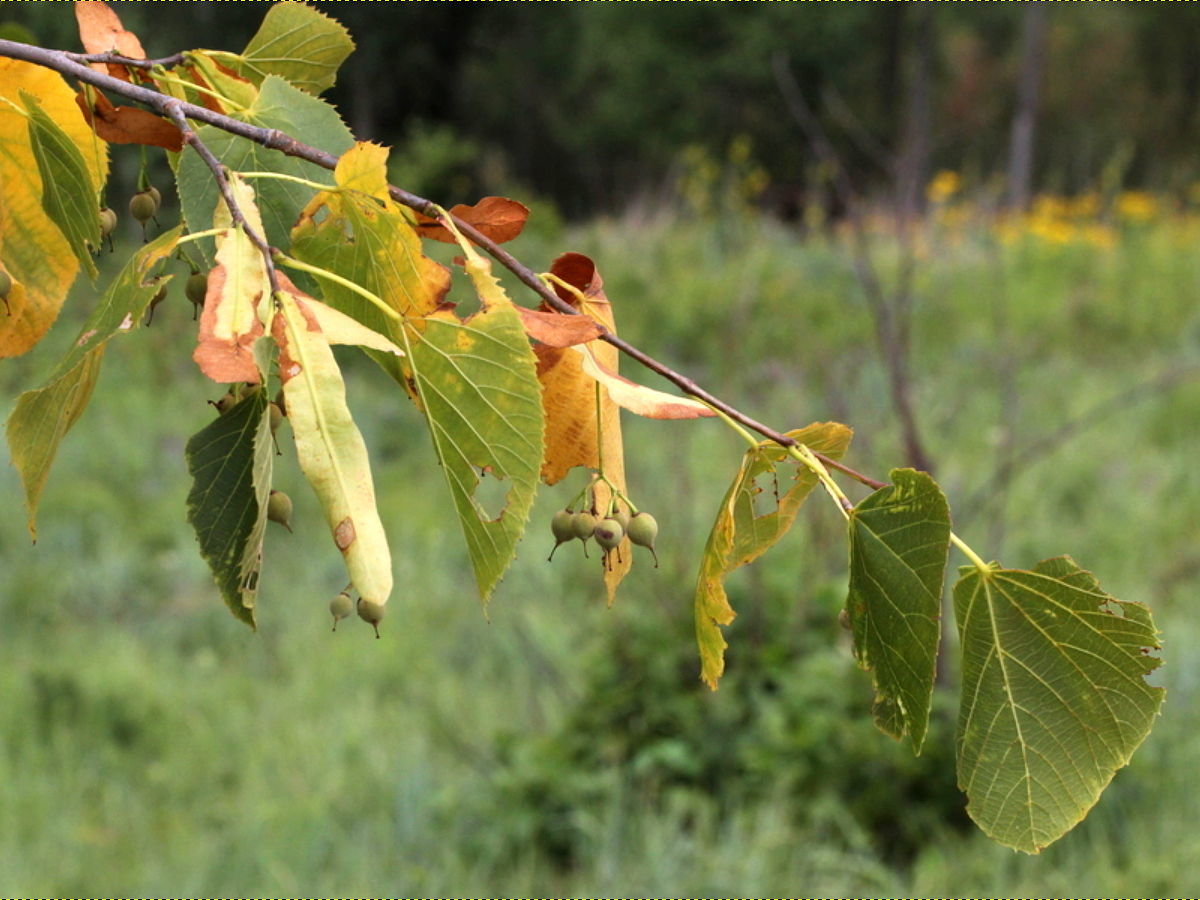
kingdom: Plantae
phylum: Tracheophyta
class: Magnoliopsida
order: Malvales
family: Malvaceae
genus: Tilia
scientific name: Tilia americana
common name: Basswood
